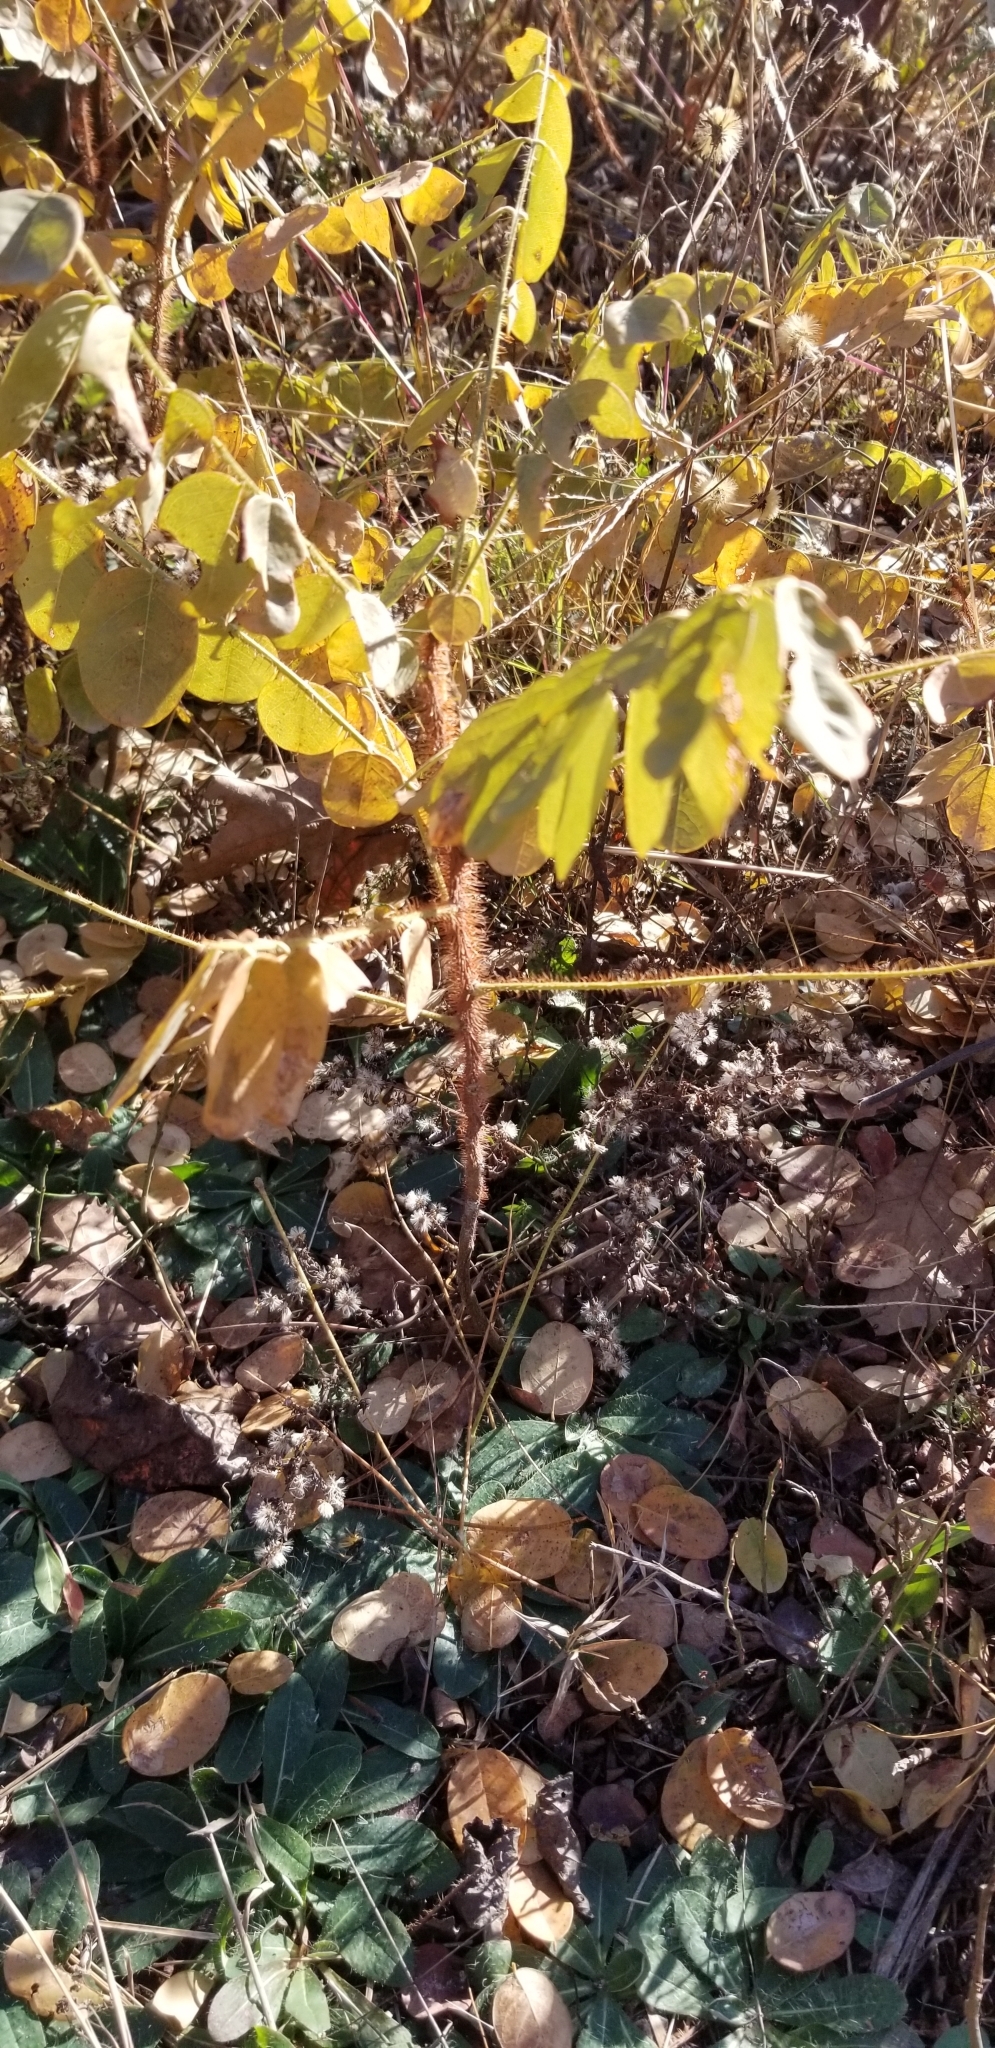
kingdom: Plantae
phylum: Tracheophyta
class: Magnoliopsida
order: Fabales
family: Fabaceae
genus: Robinia
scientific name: Robinia hispida
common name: Bristly locust
